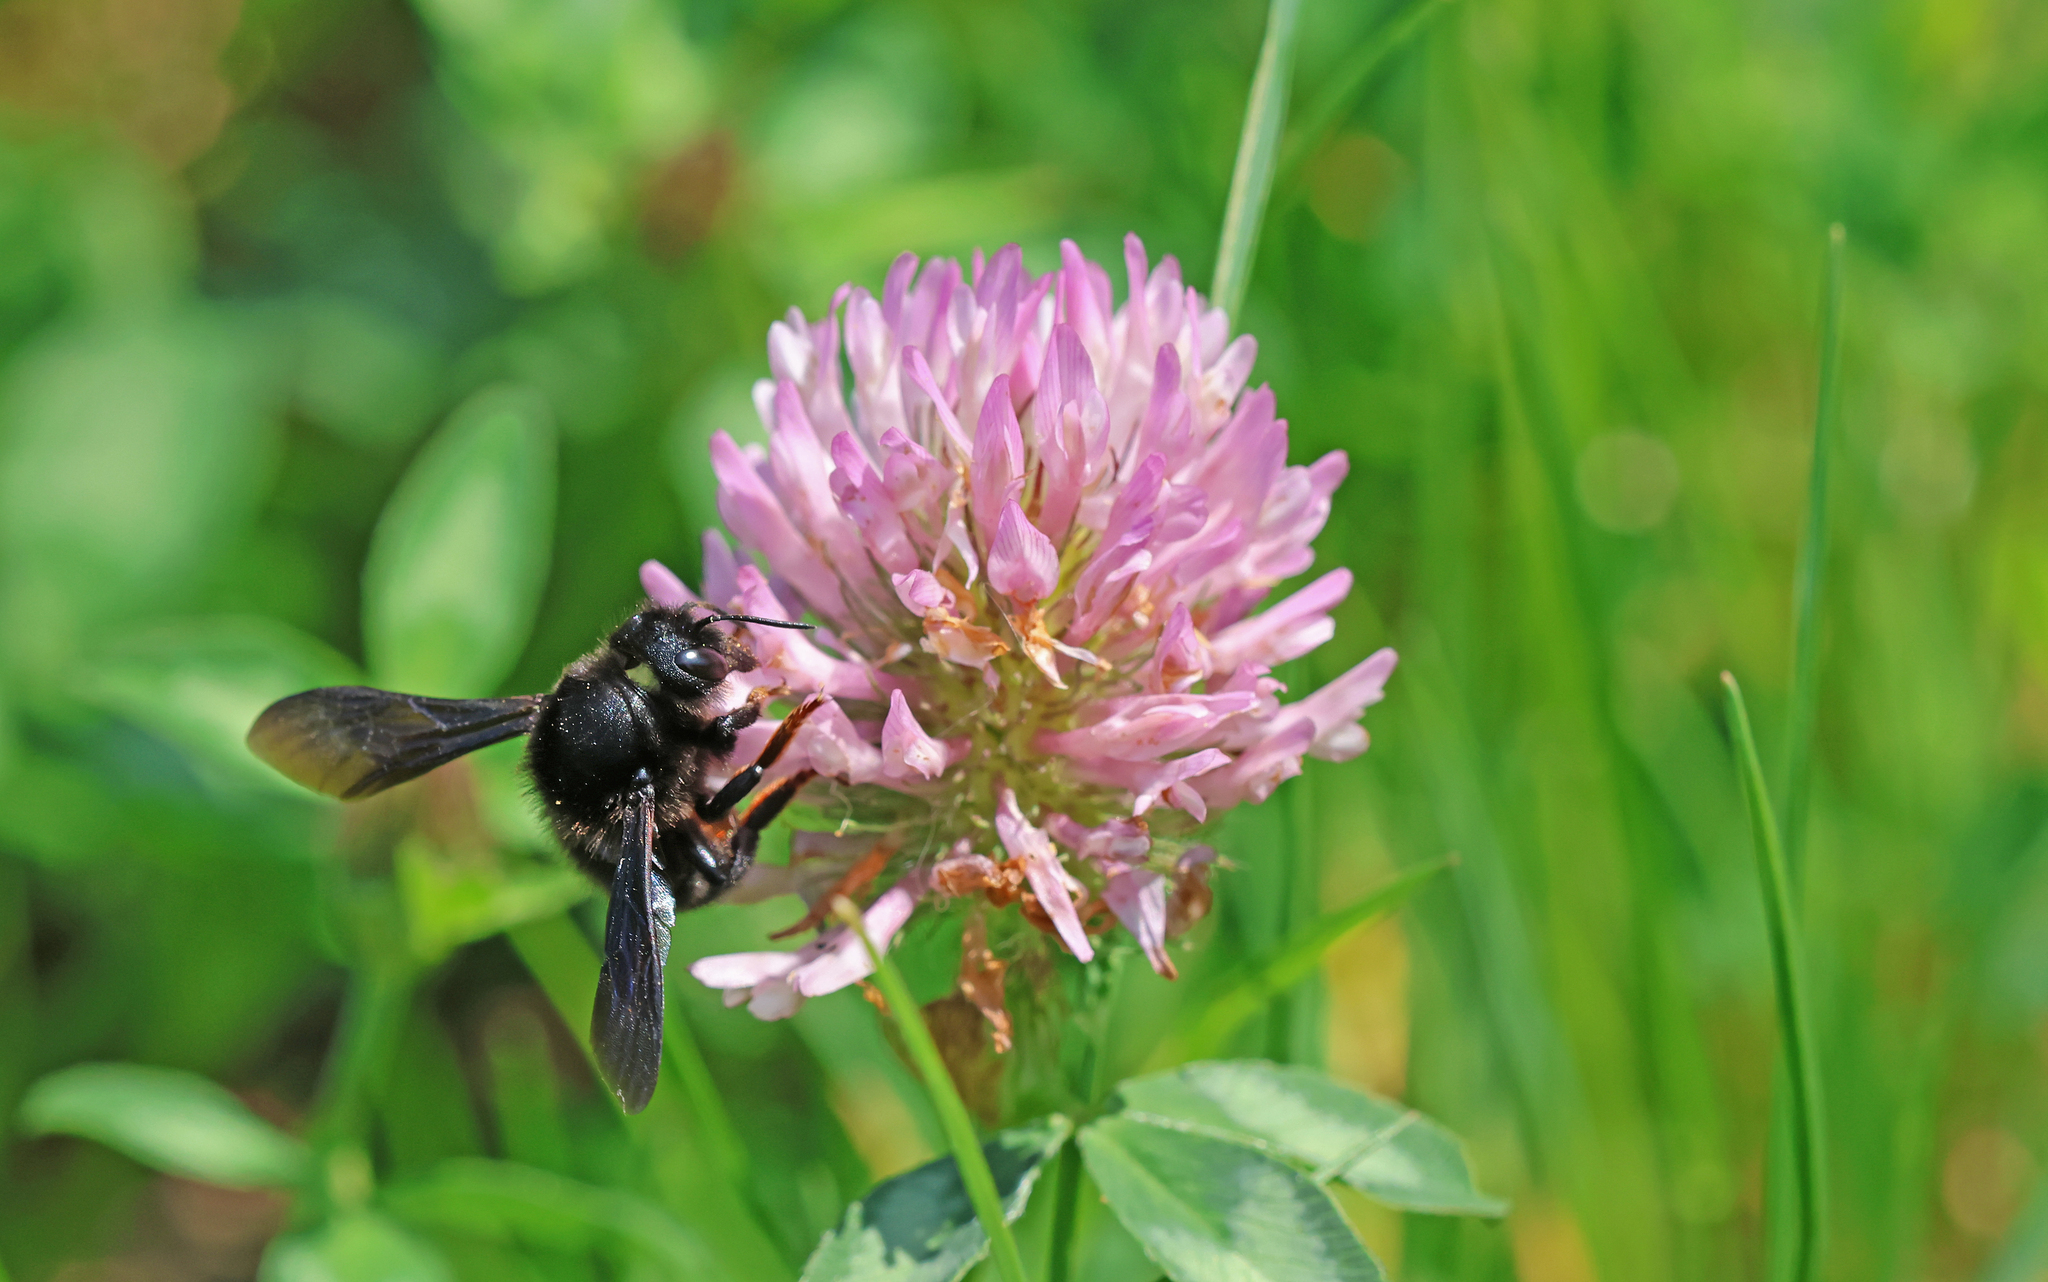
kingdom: Animalia
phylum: Arthropoda
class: Insecta
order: Hymenoptera
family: Megachilidae
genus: Megachile
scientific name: Megachile parietina
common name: Black mud bee
